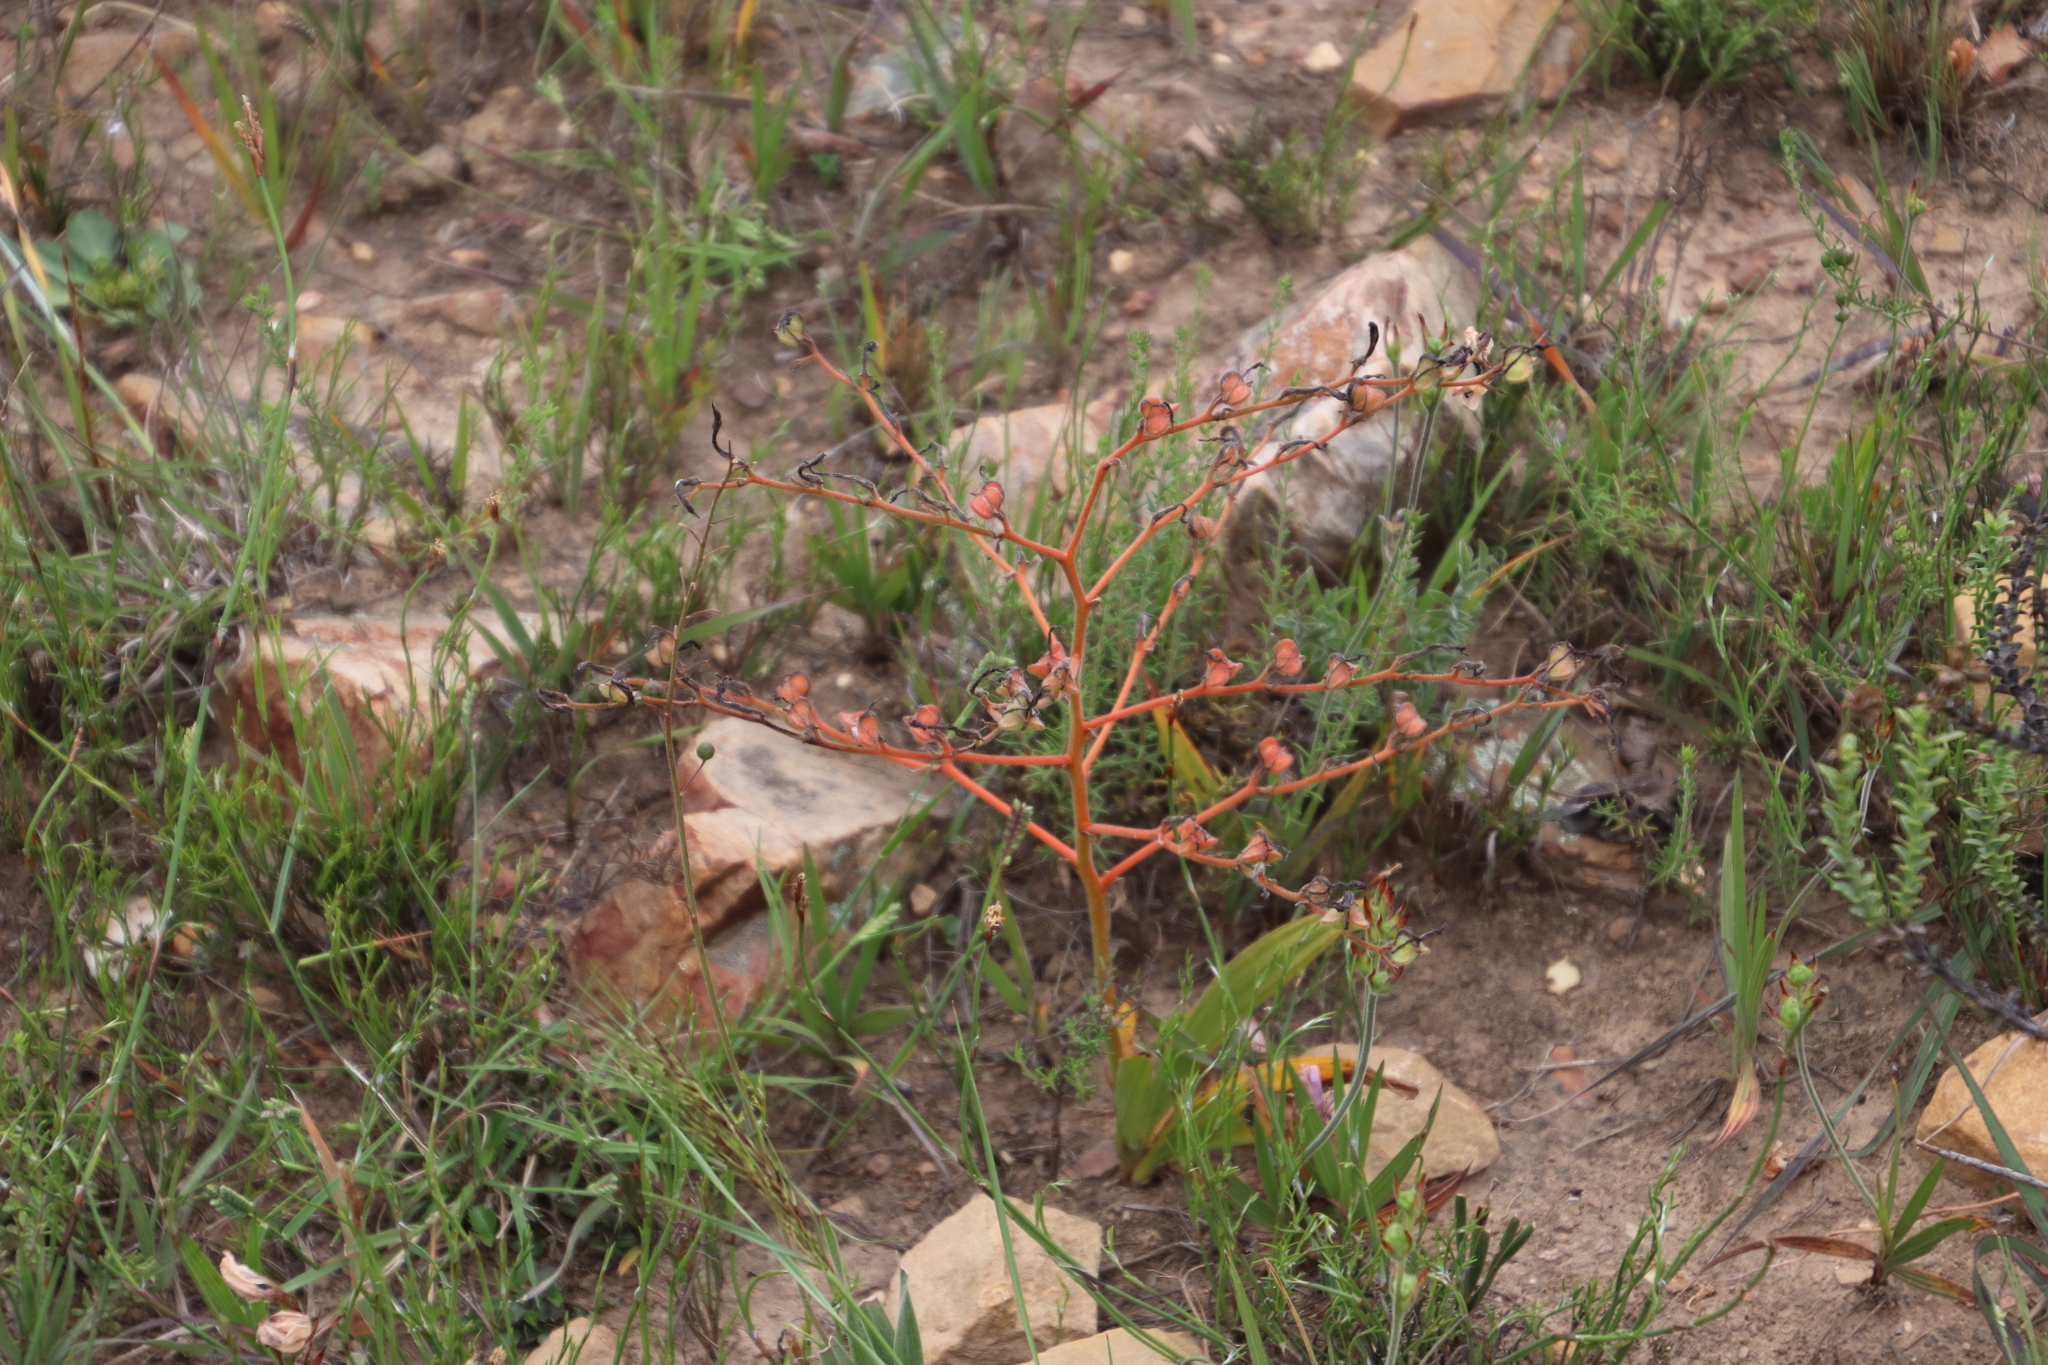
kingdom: Plantae
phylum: Tracheophyta
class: Liliopsida
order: Commelinales
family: Haemodoraceae
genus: Wachendorfia
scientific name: Wachendorfia paniculata
